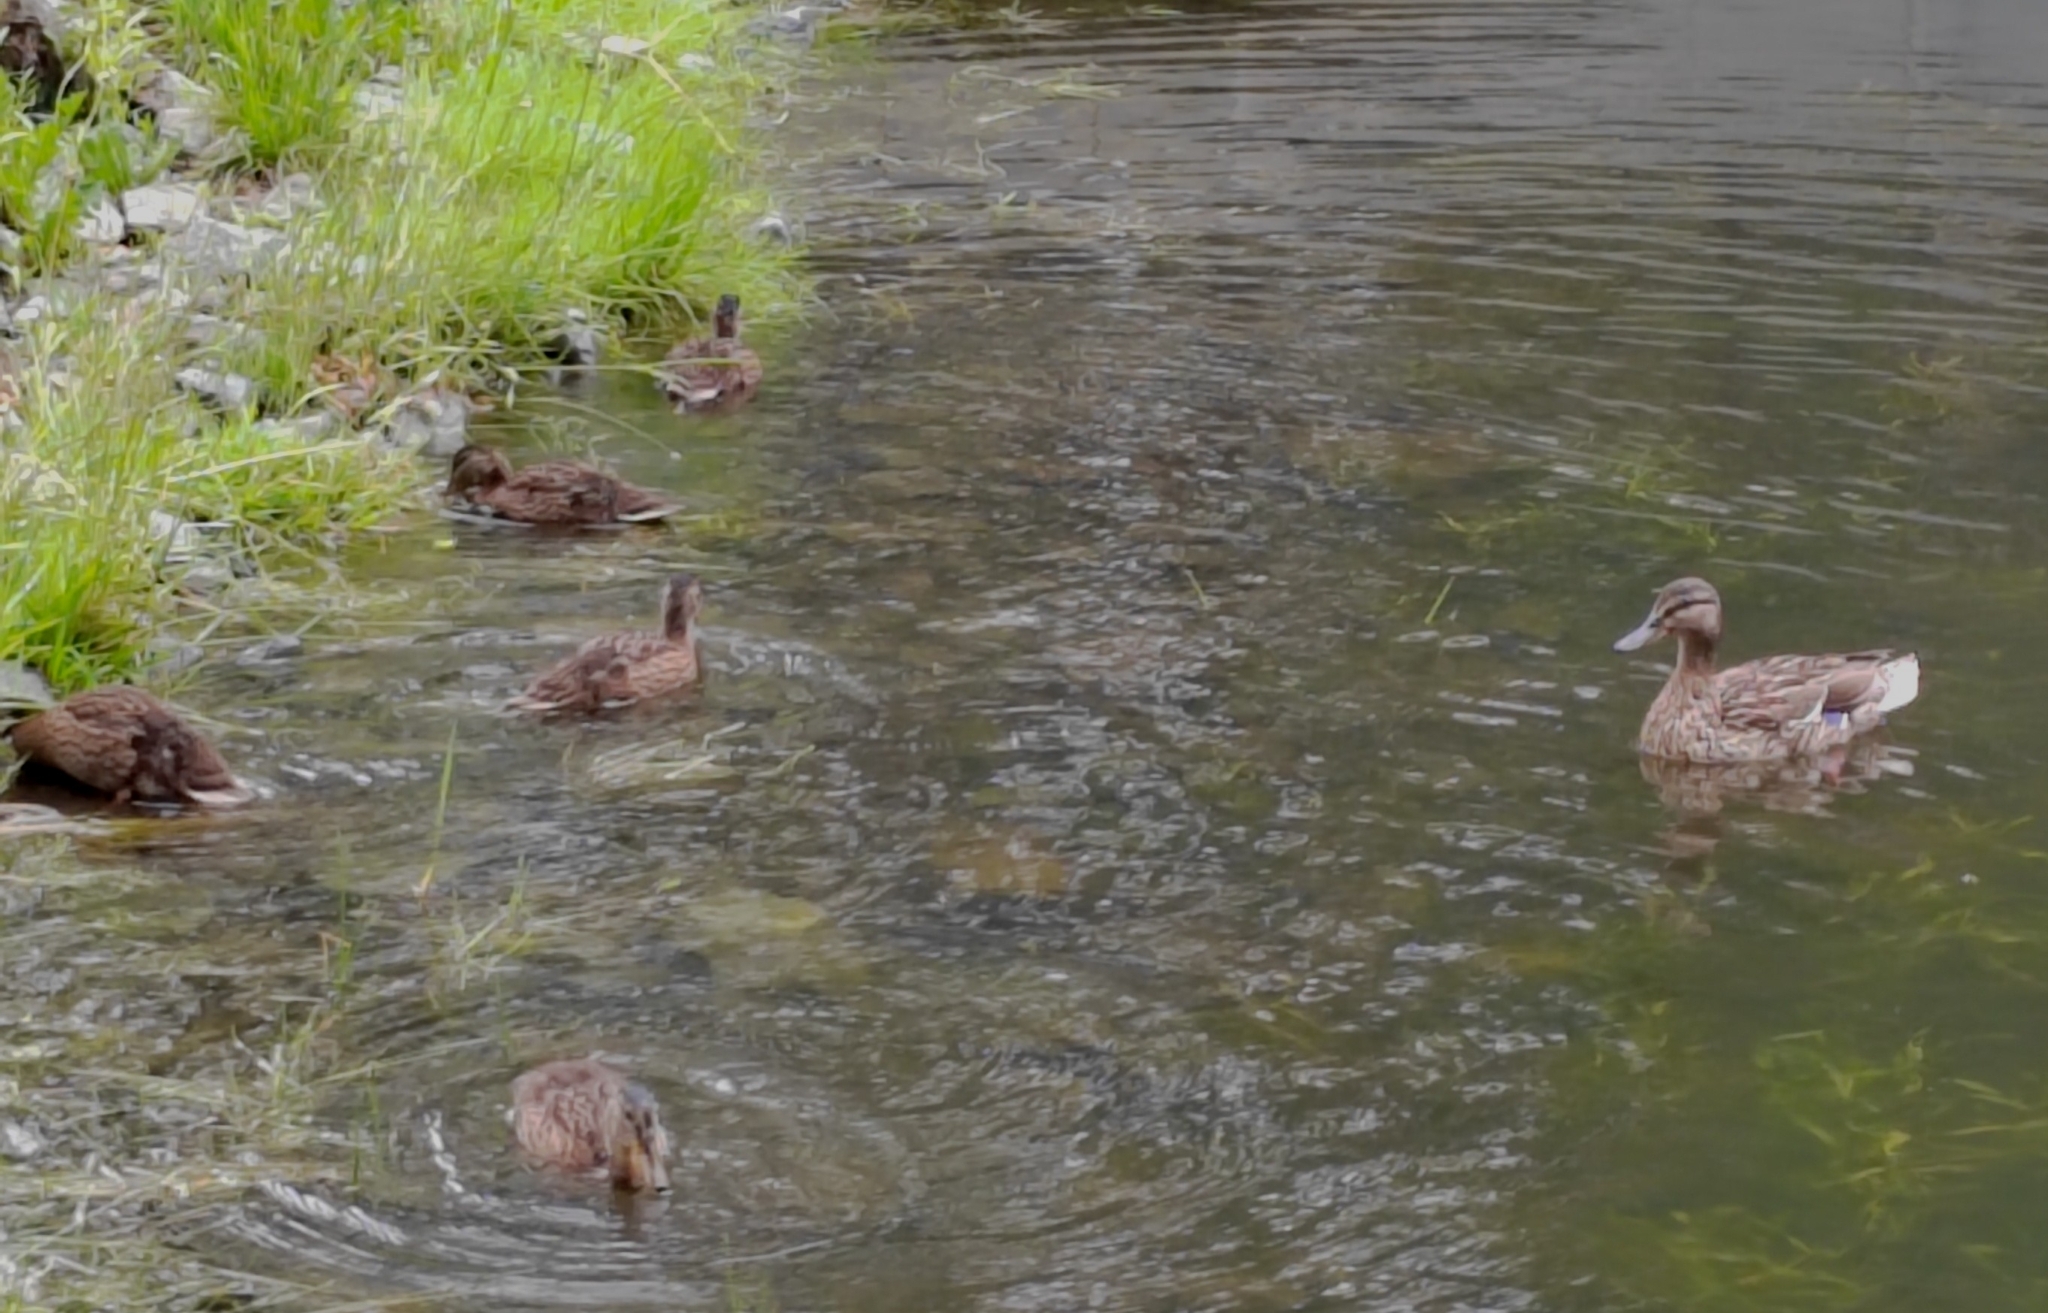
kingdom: Animalia
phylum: Chordata
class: Aves
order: Anseriformes
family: Anatidae
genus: Anas
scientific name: Anas platyrhynchos
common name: Mallard
